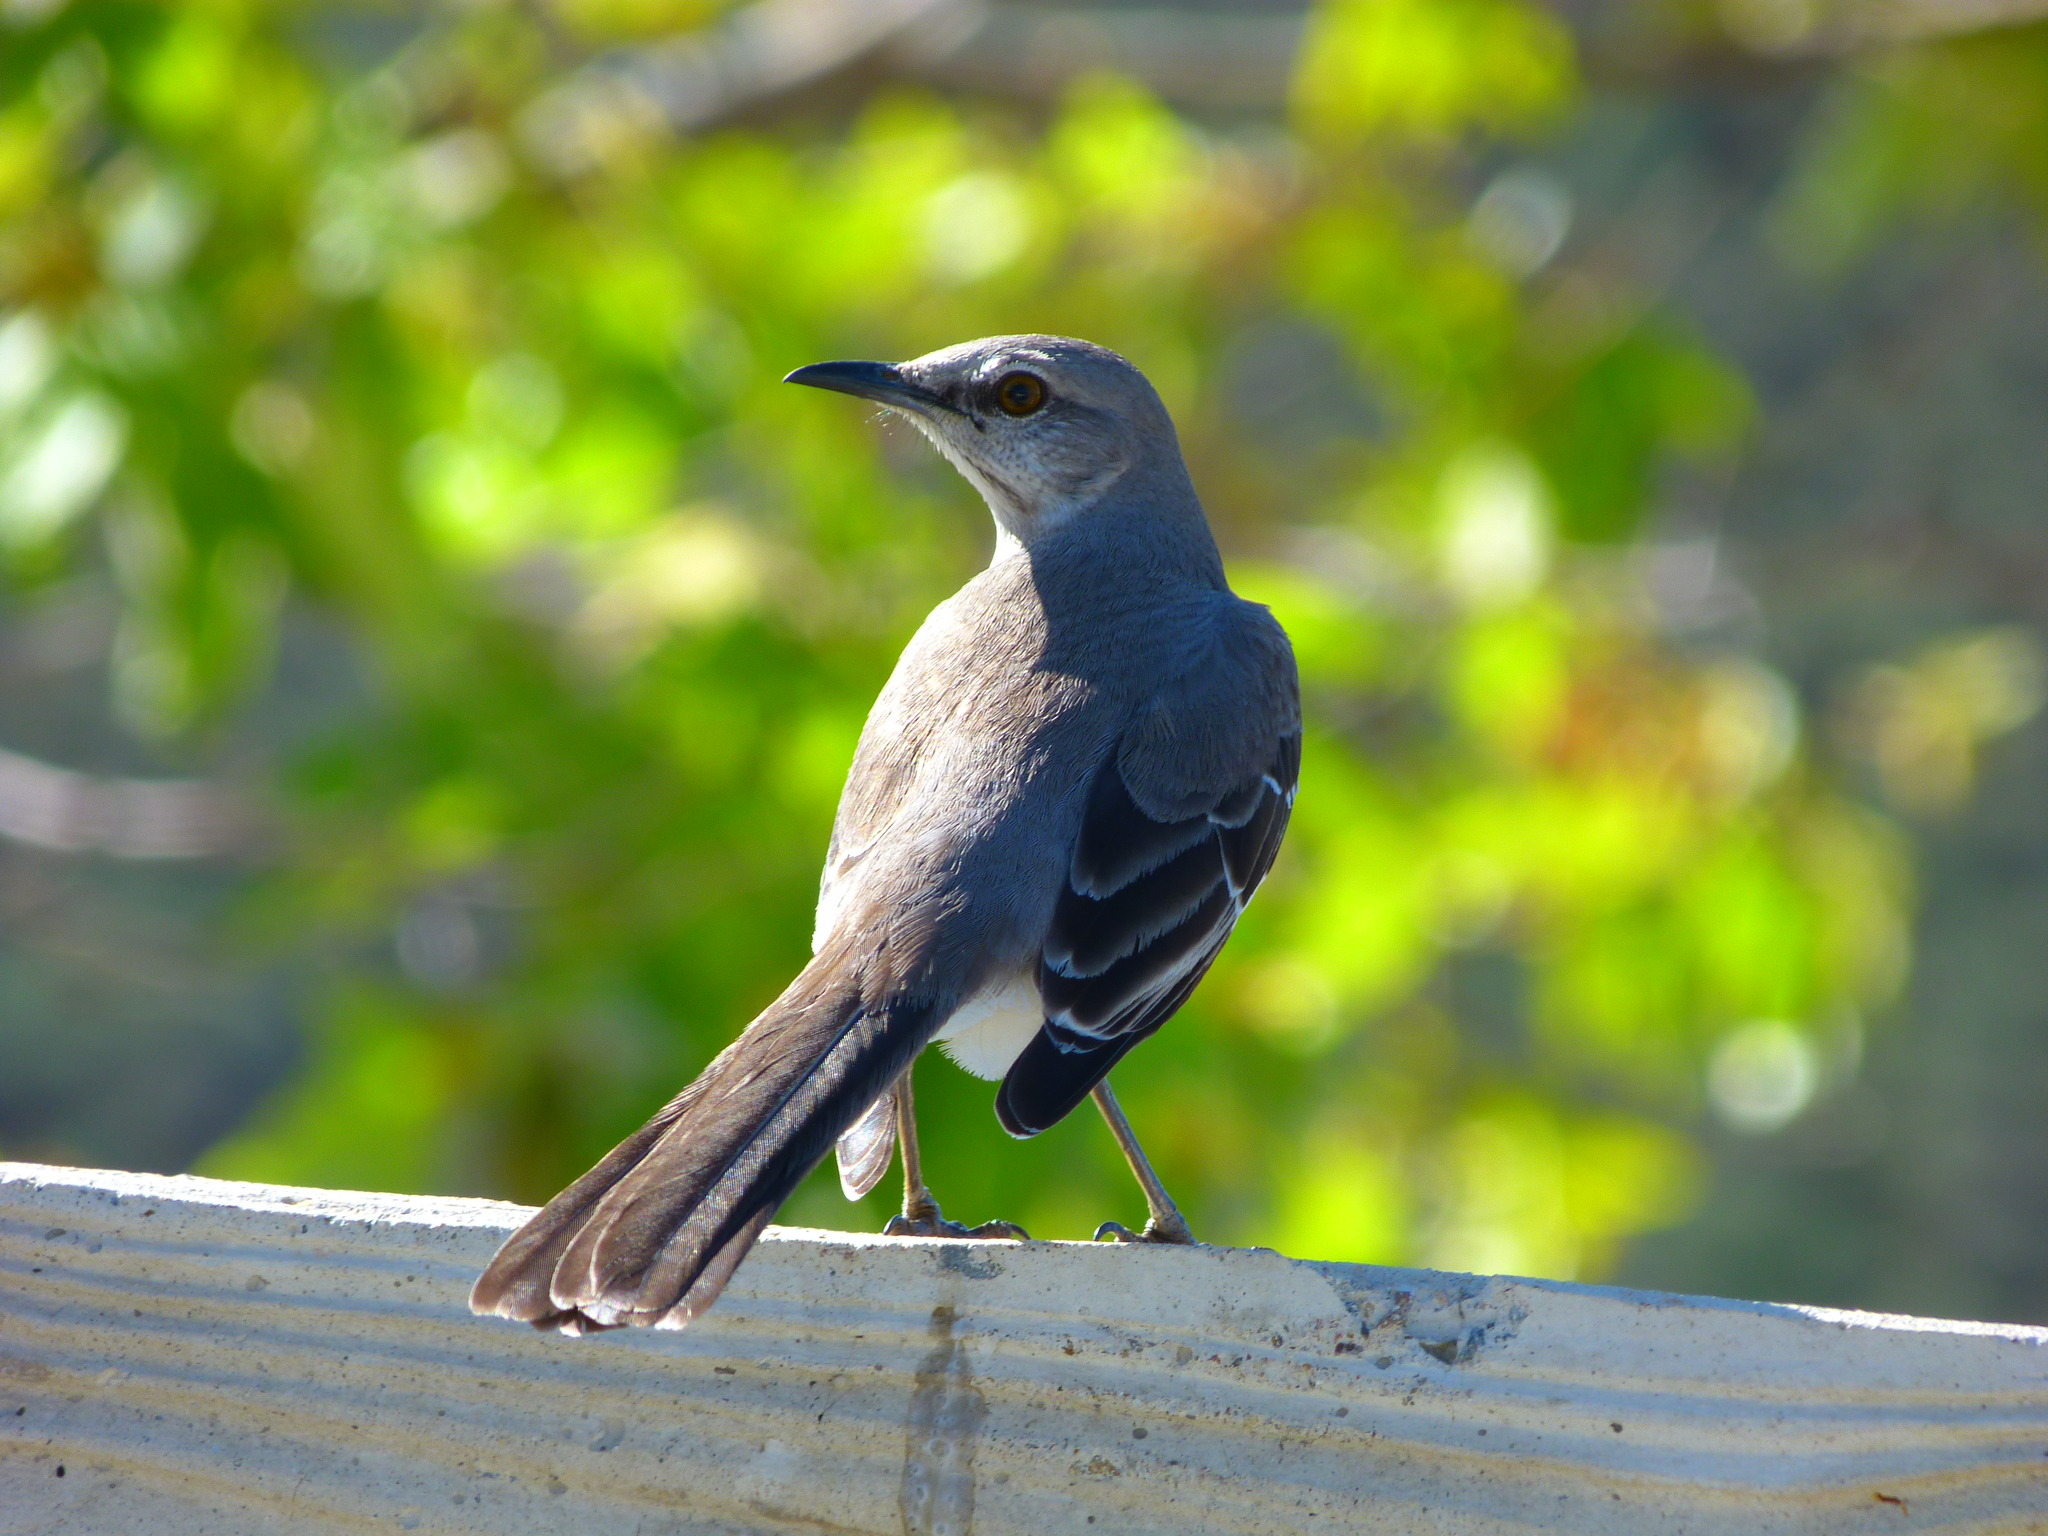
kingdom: Animalia
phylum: Chordata
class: Aves
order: Passeriformes
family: Mimidae
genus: Mimus
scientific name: Mimus polyglottos
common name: Northern mockingbird
